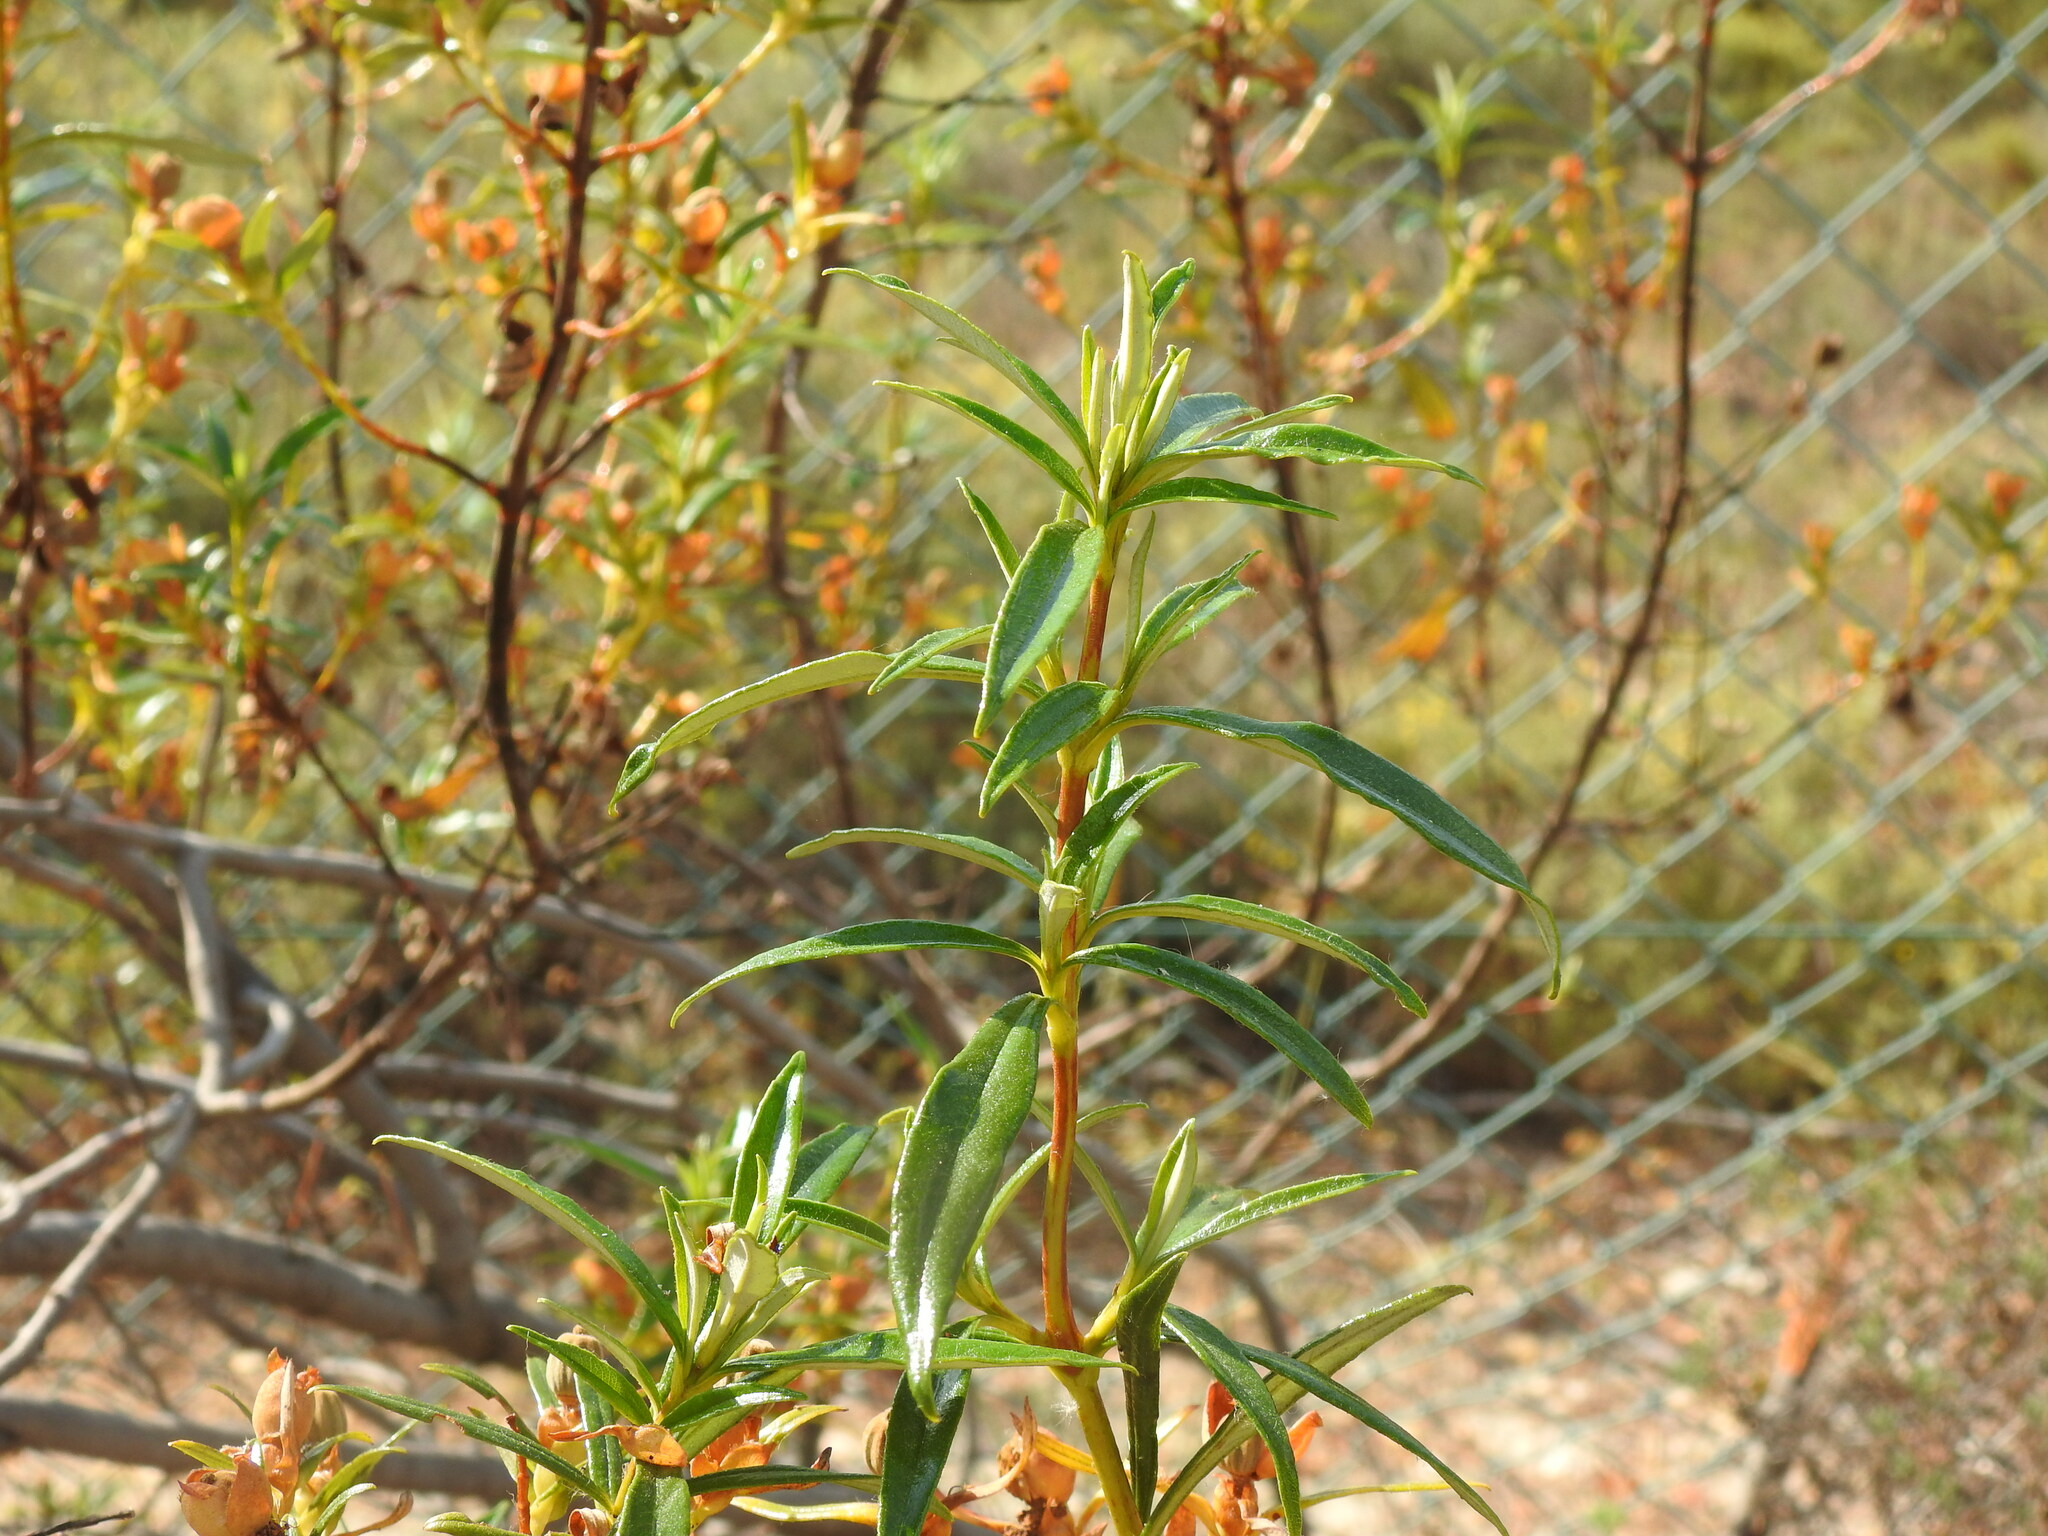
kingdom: Plantae
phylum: Tracheophyta
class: Magnoliopsida
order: Malvales
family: Cistaceae
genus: Cistus
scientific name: Cistus ladanifer
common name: Common gum cistus
